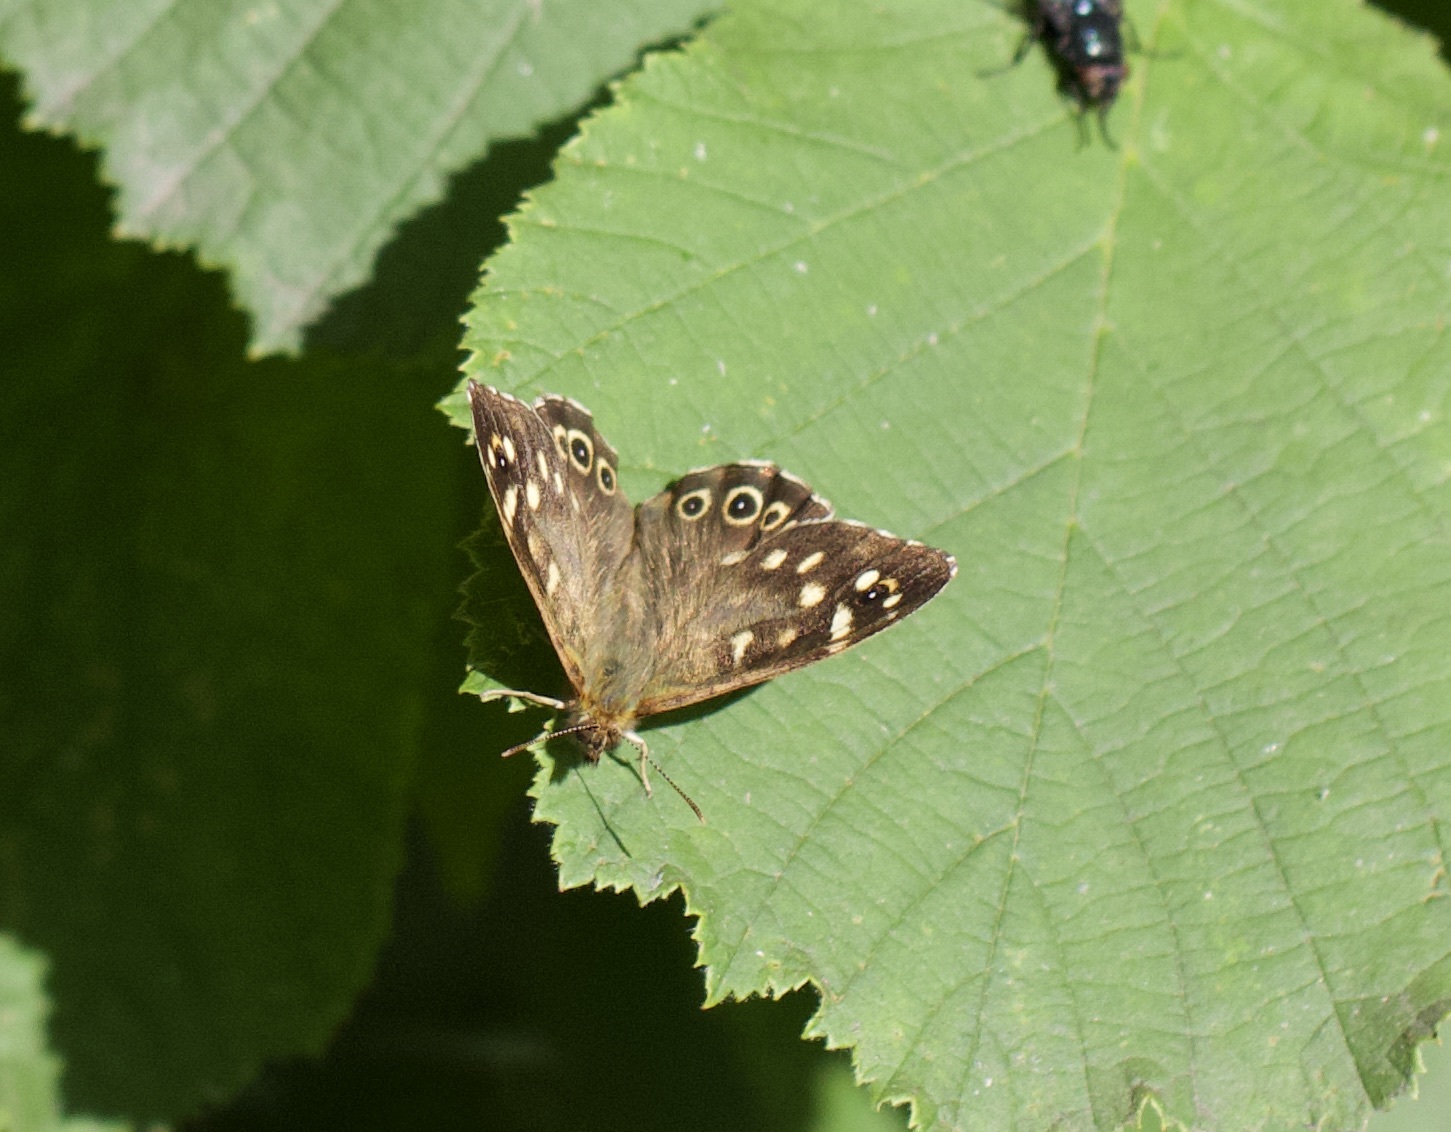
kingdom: Animalia
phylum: Arthropoda
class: Insecta
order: Lepidoptera
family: Nymphalidae
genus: Pararge
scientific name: Pararge aegeria
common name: Speckled wood
